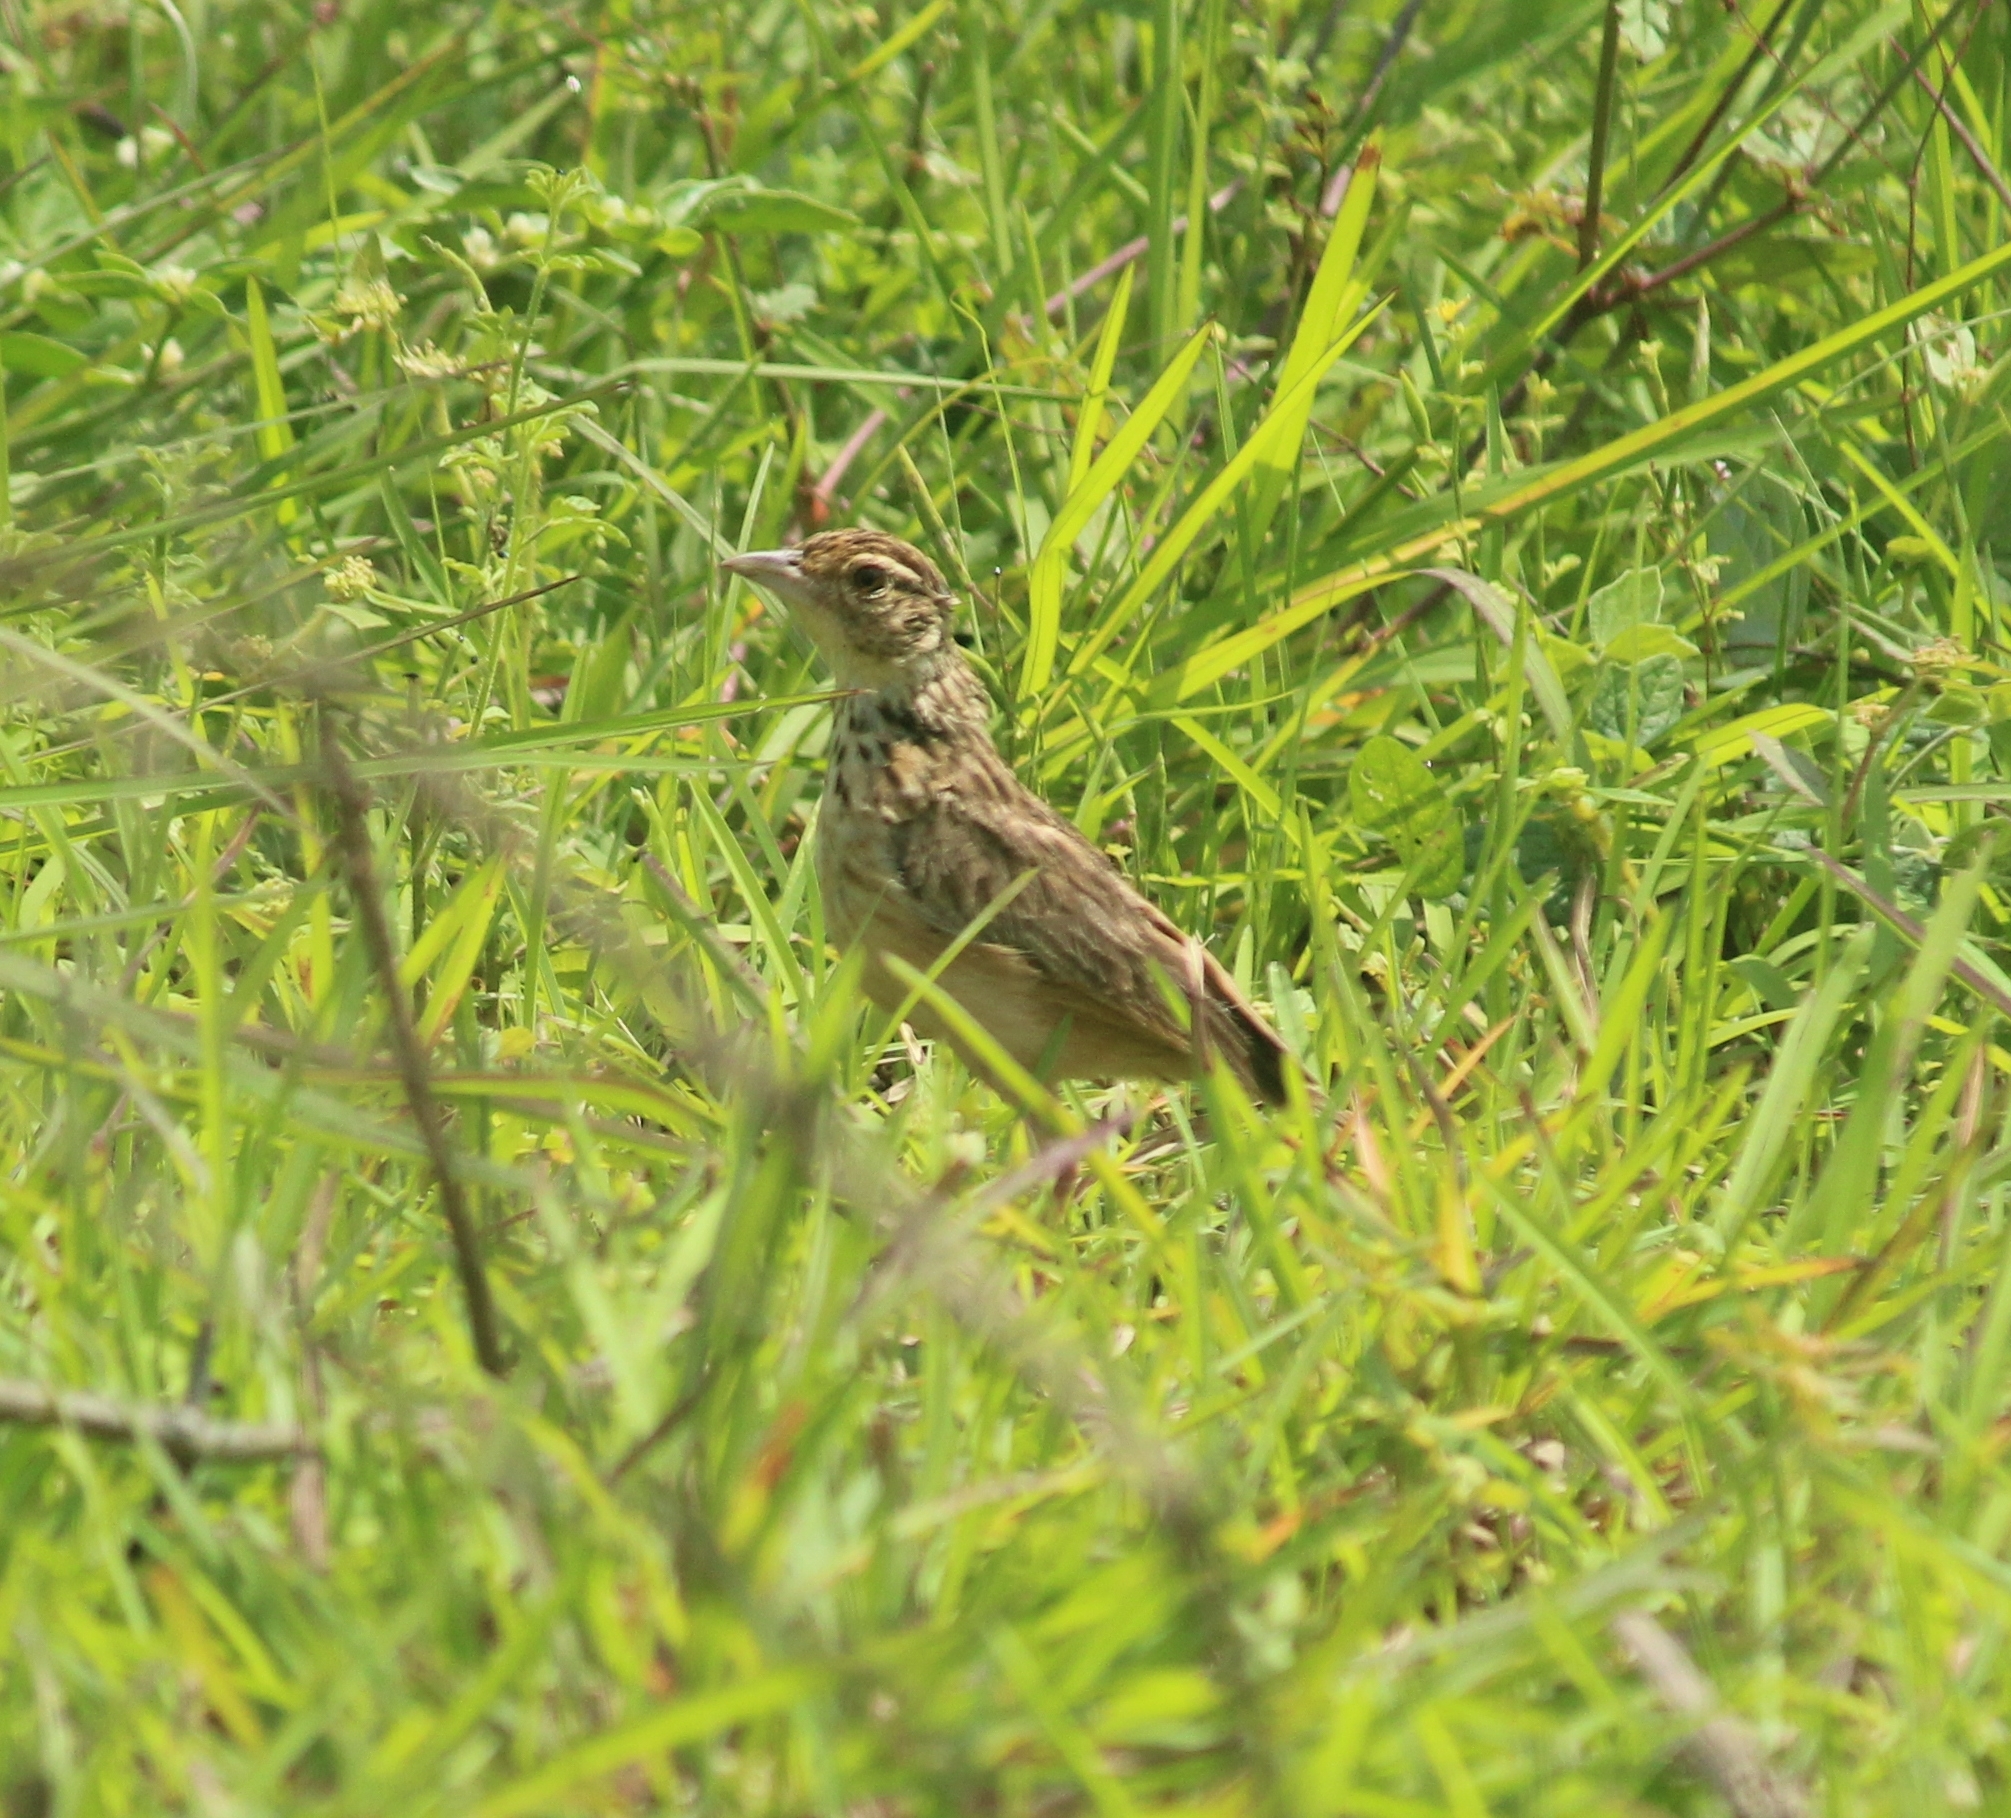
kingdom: Animalia
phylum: Chordata
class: Aves
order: Passeriformes
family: Alaudidae
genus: Mirafra
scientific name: Mirafra affinis
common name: Jerdon's bushlark
